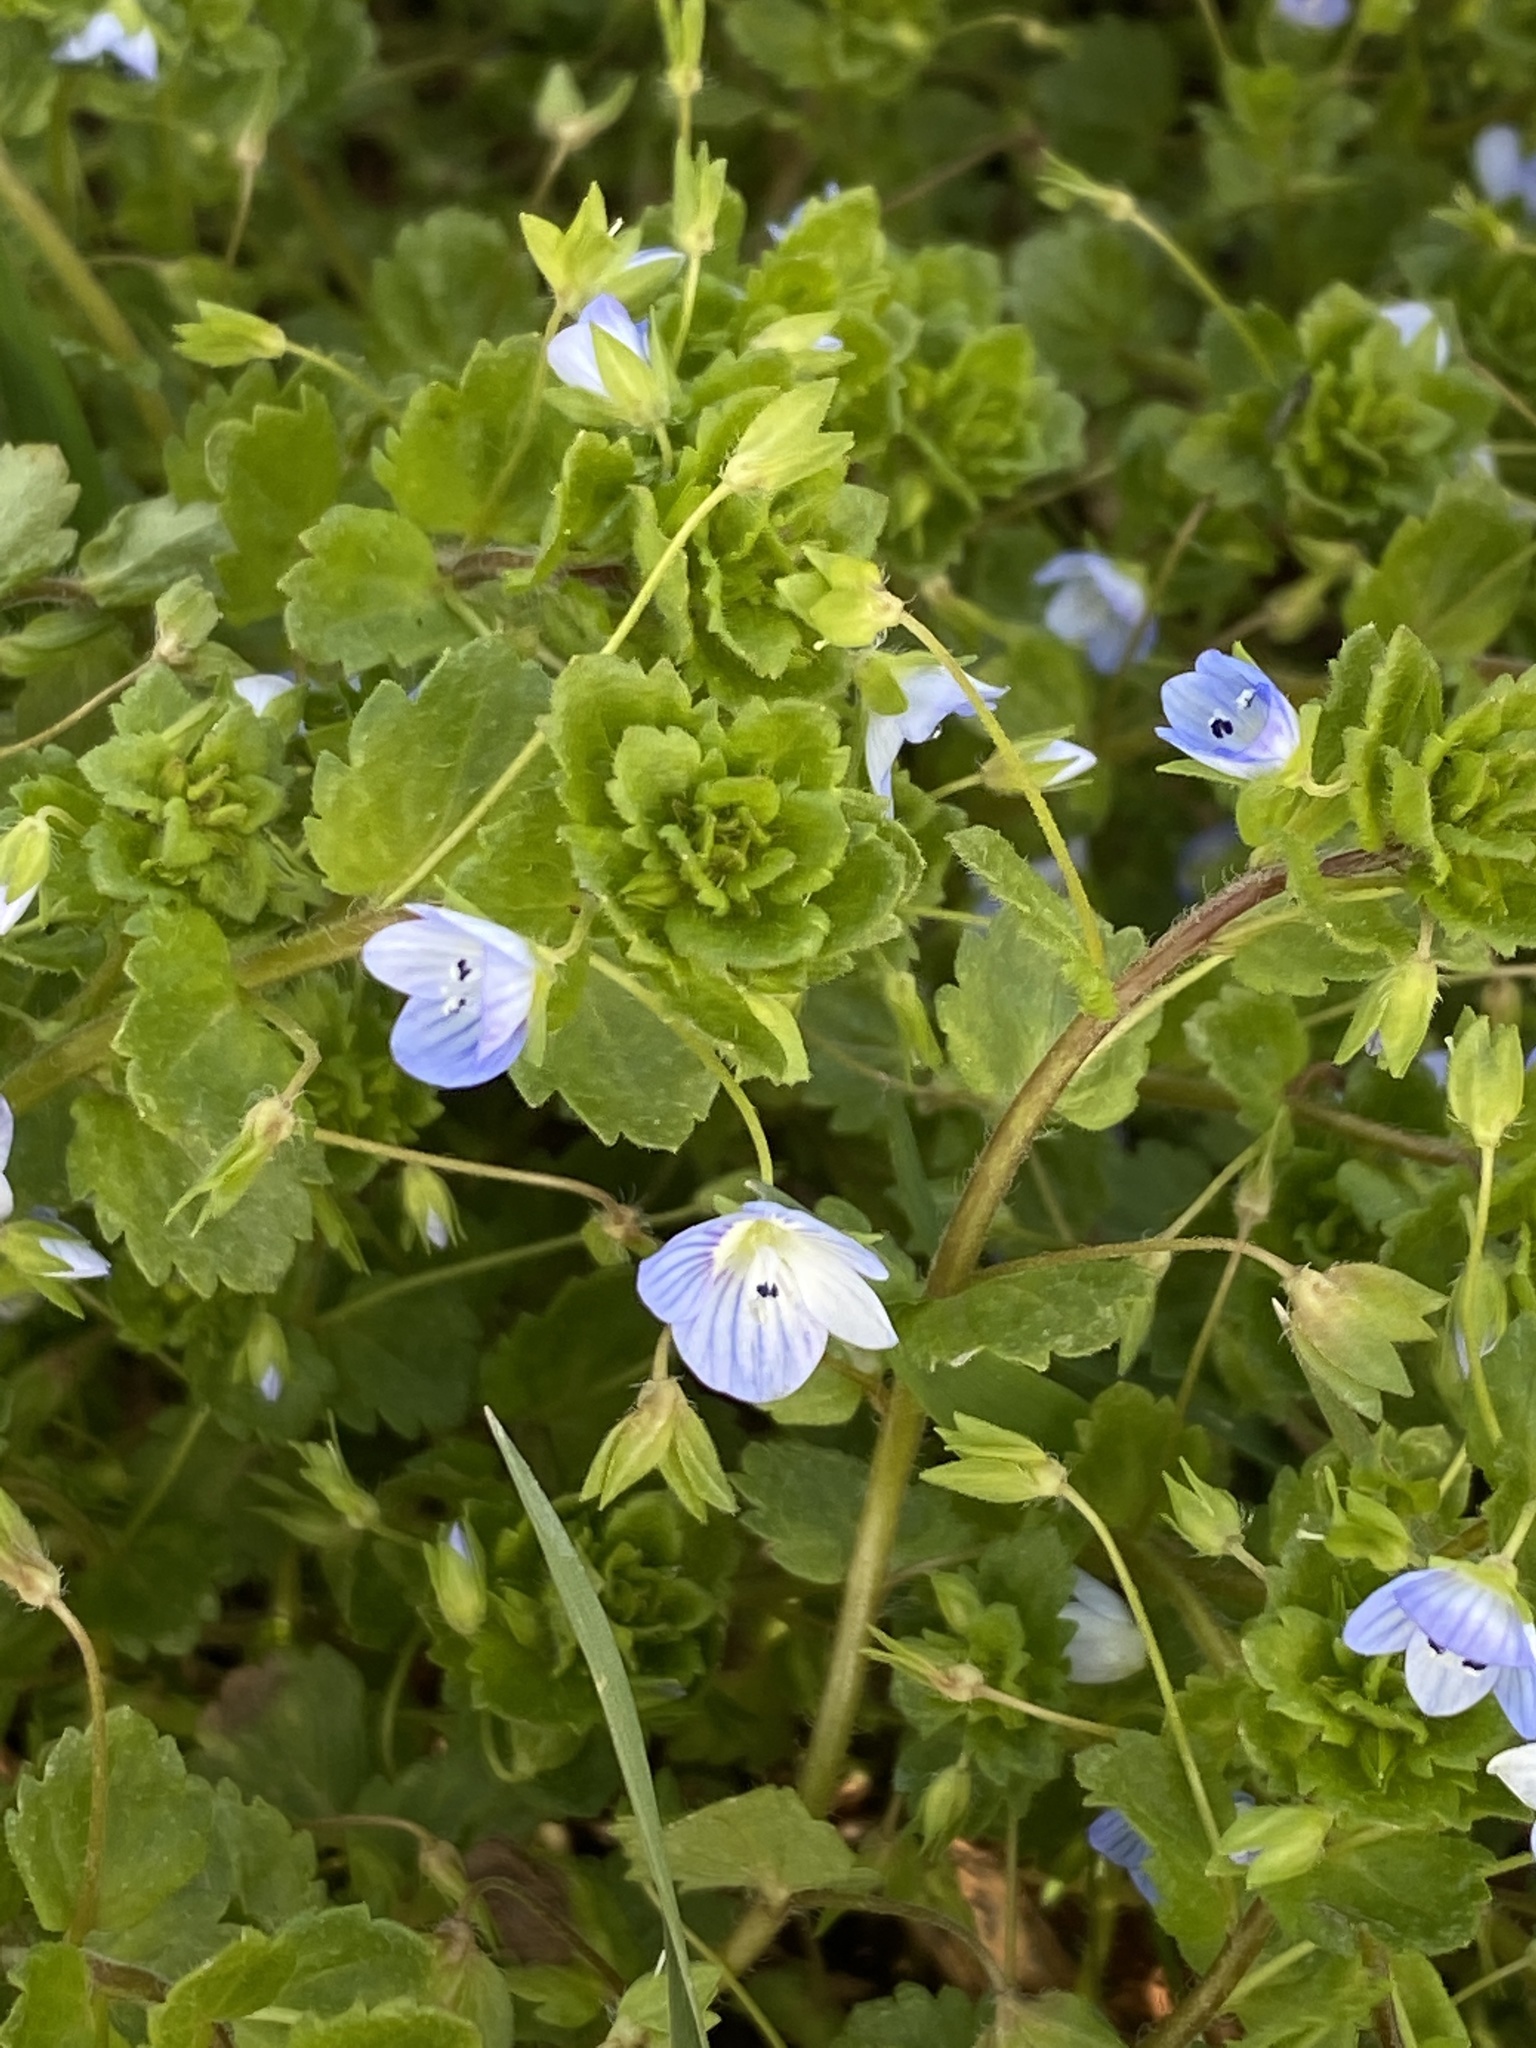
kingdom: Plantae
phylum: Tracheophyta
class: Magnoliopsida
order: Lamiales
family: Plantaginaceae
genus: Veronica
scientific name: Veronica persica
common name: Common field-speedwell
